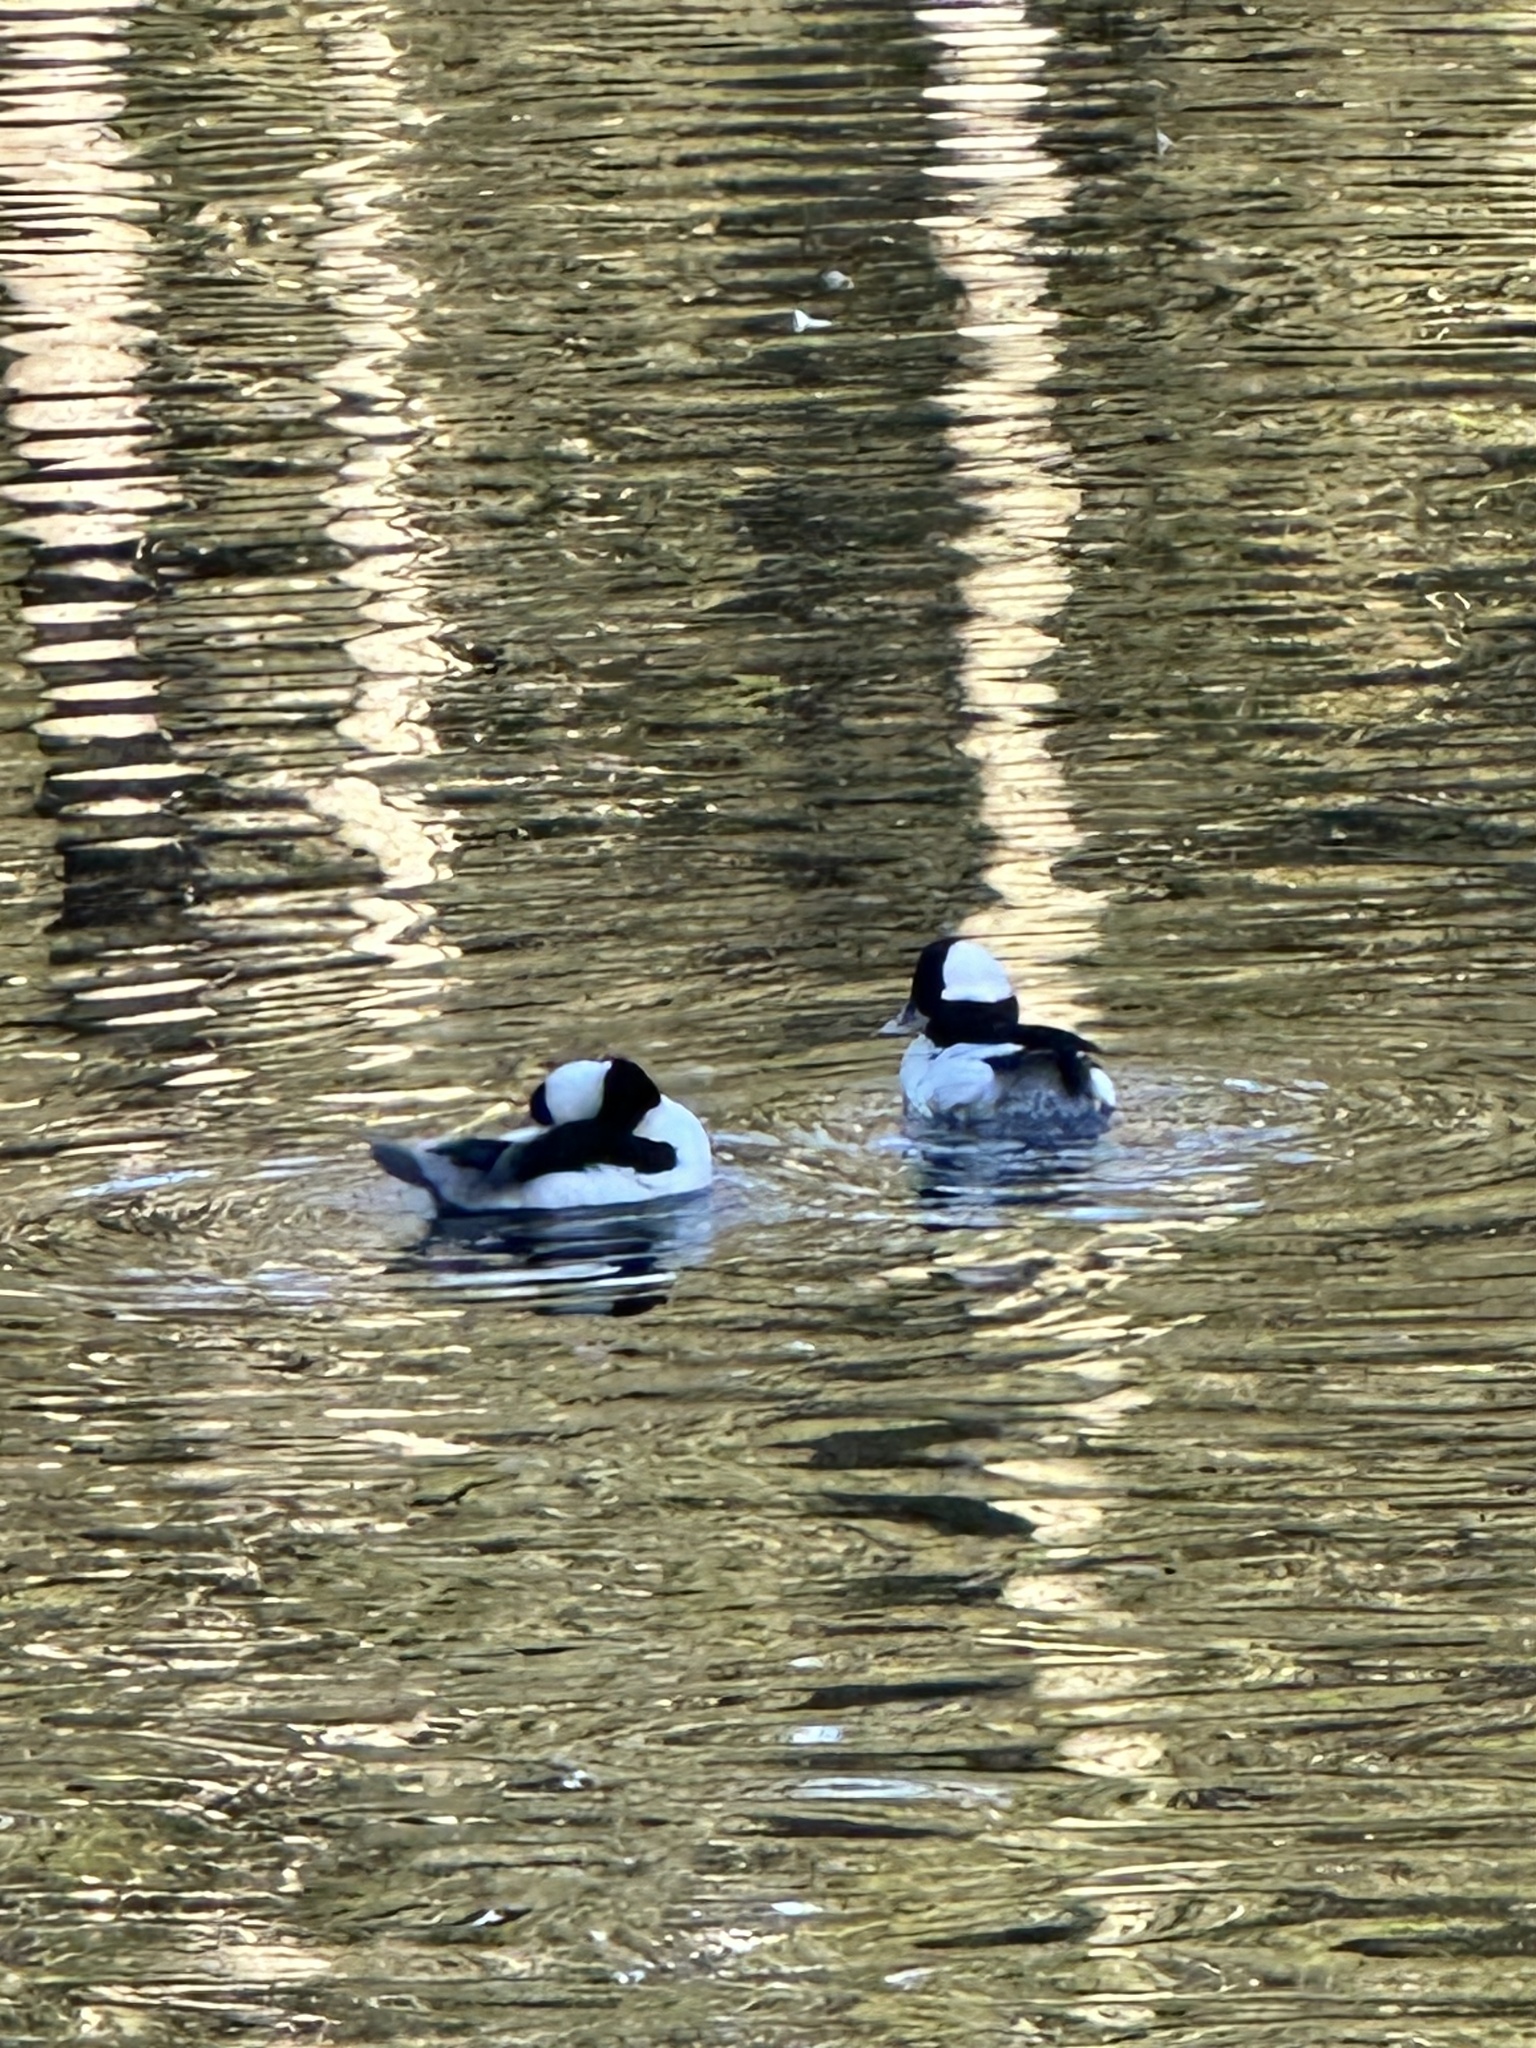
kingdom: Animalia
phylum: Chordata
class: Aves
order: Anseriformes
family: Anatidae
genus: Bucephala
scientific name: Bucephala albeola
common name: Bufflehead
